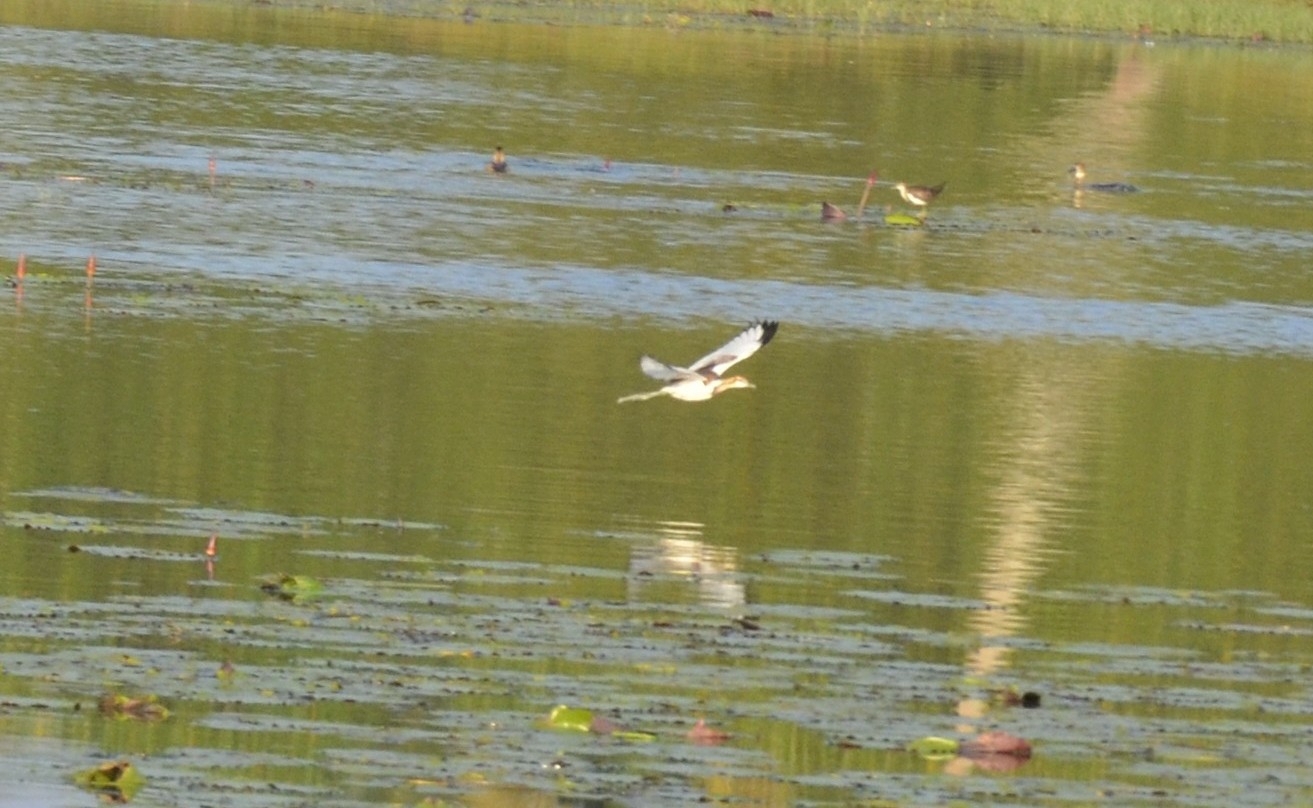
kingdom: Animalia
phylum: Chordata
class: Aves
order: Charadriiformes
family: Jacanidae
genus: Hydrophasianus
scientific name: Hydrophasianus chirurgus
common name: Pheasant-tailed jacana
